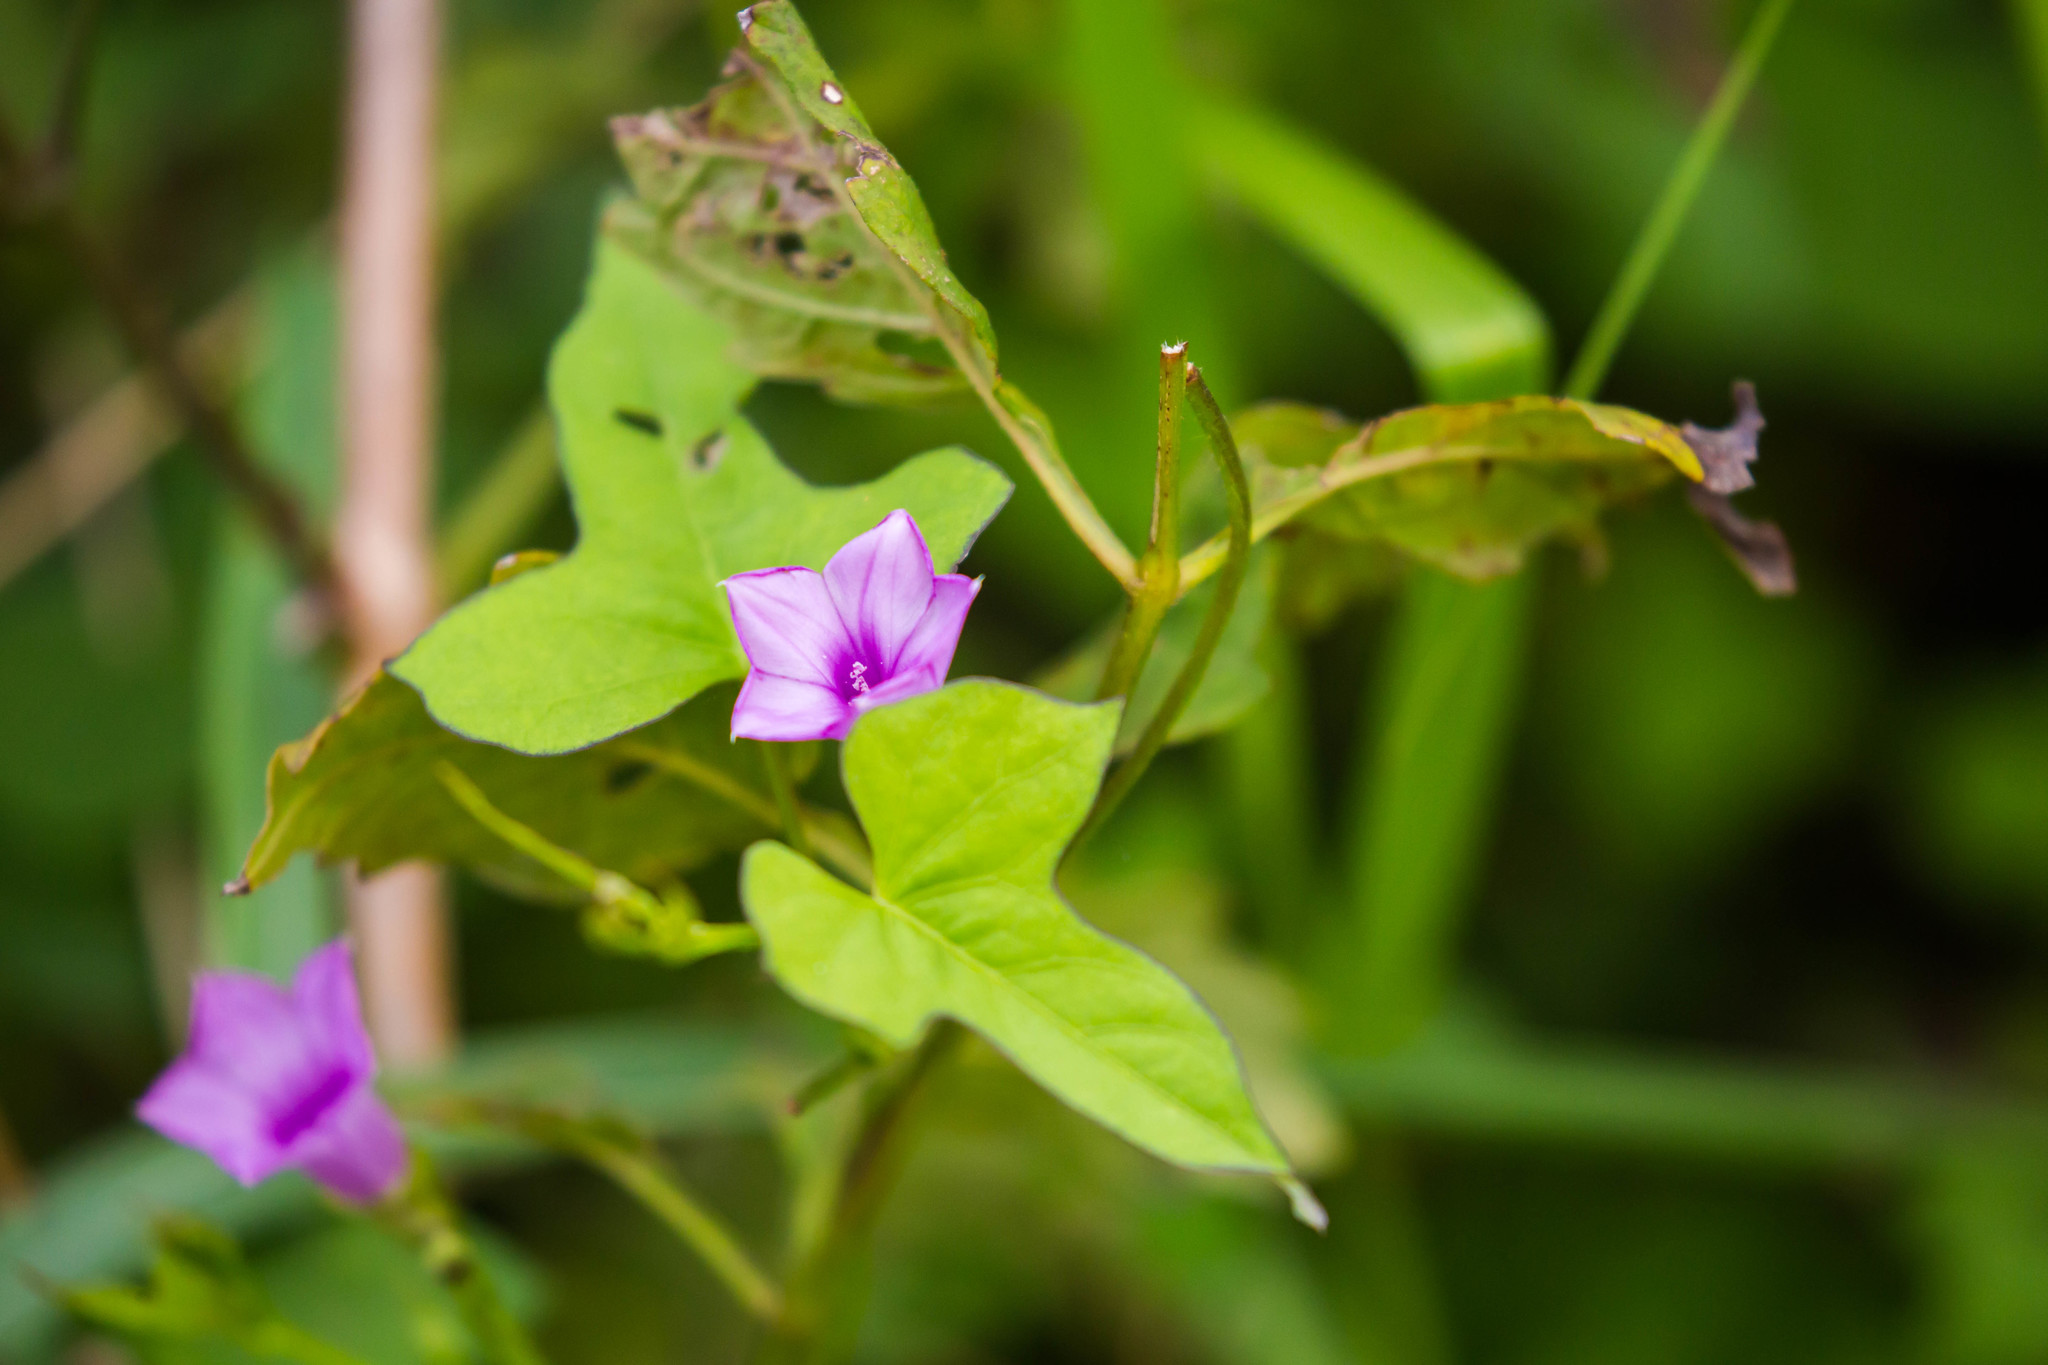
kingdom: Plantae
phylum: Tracheophyta
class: Magnoliopsida
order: Solanales
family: Convolvulaceae
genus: Ipomoea
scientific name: Ipomoea triloba
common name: Little-bell
